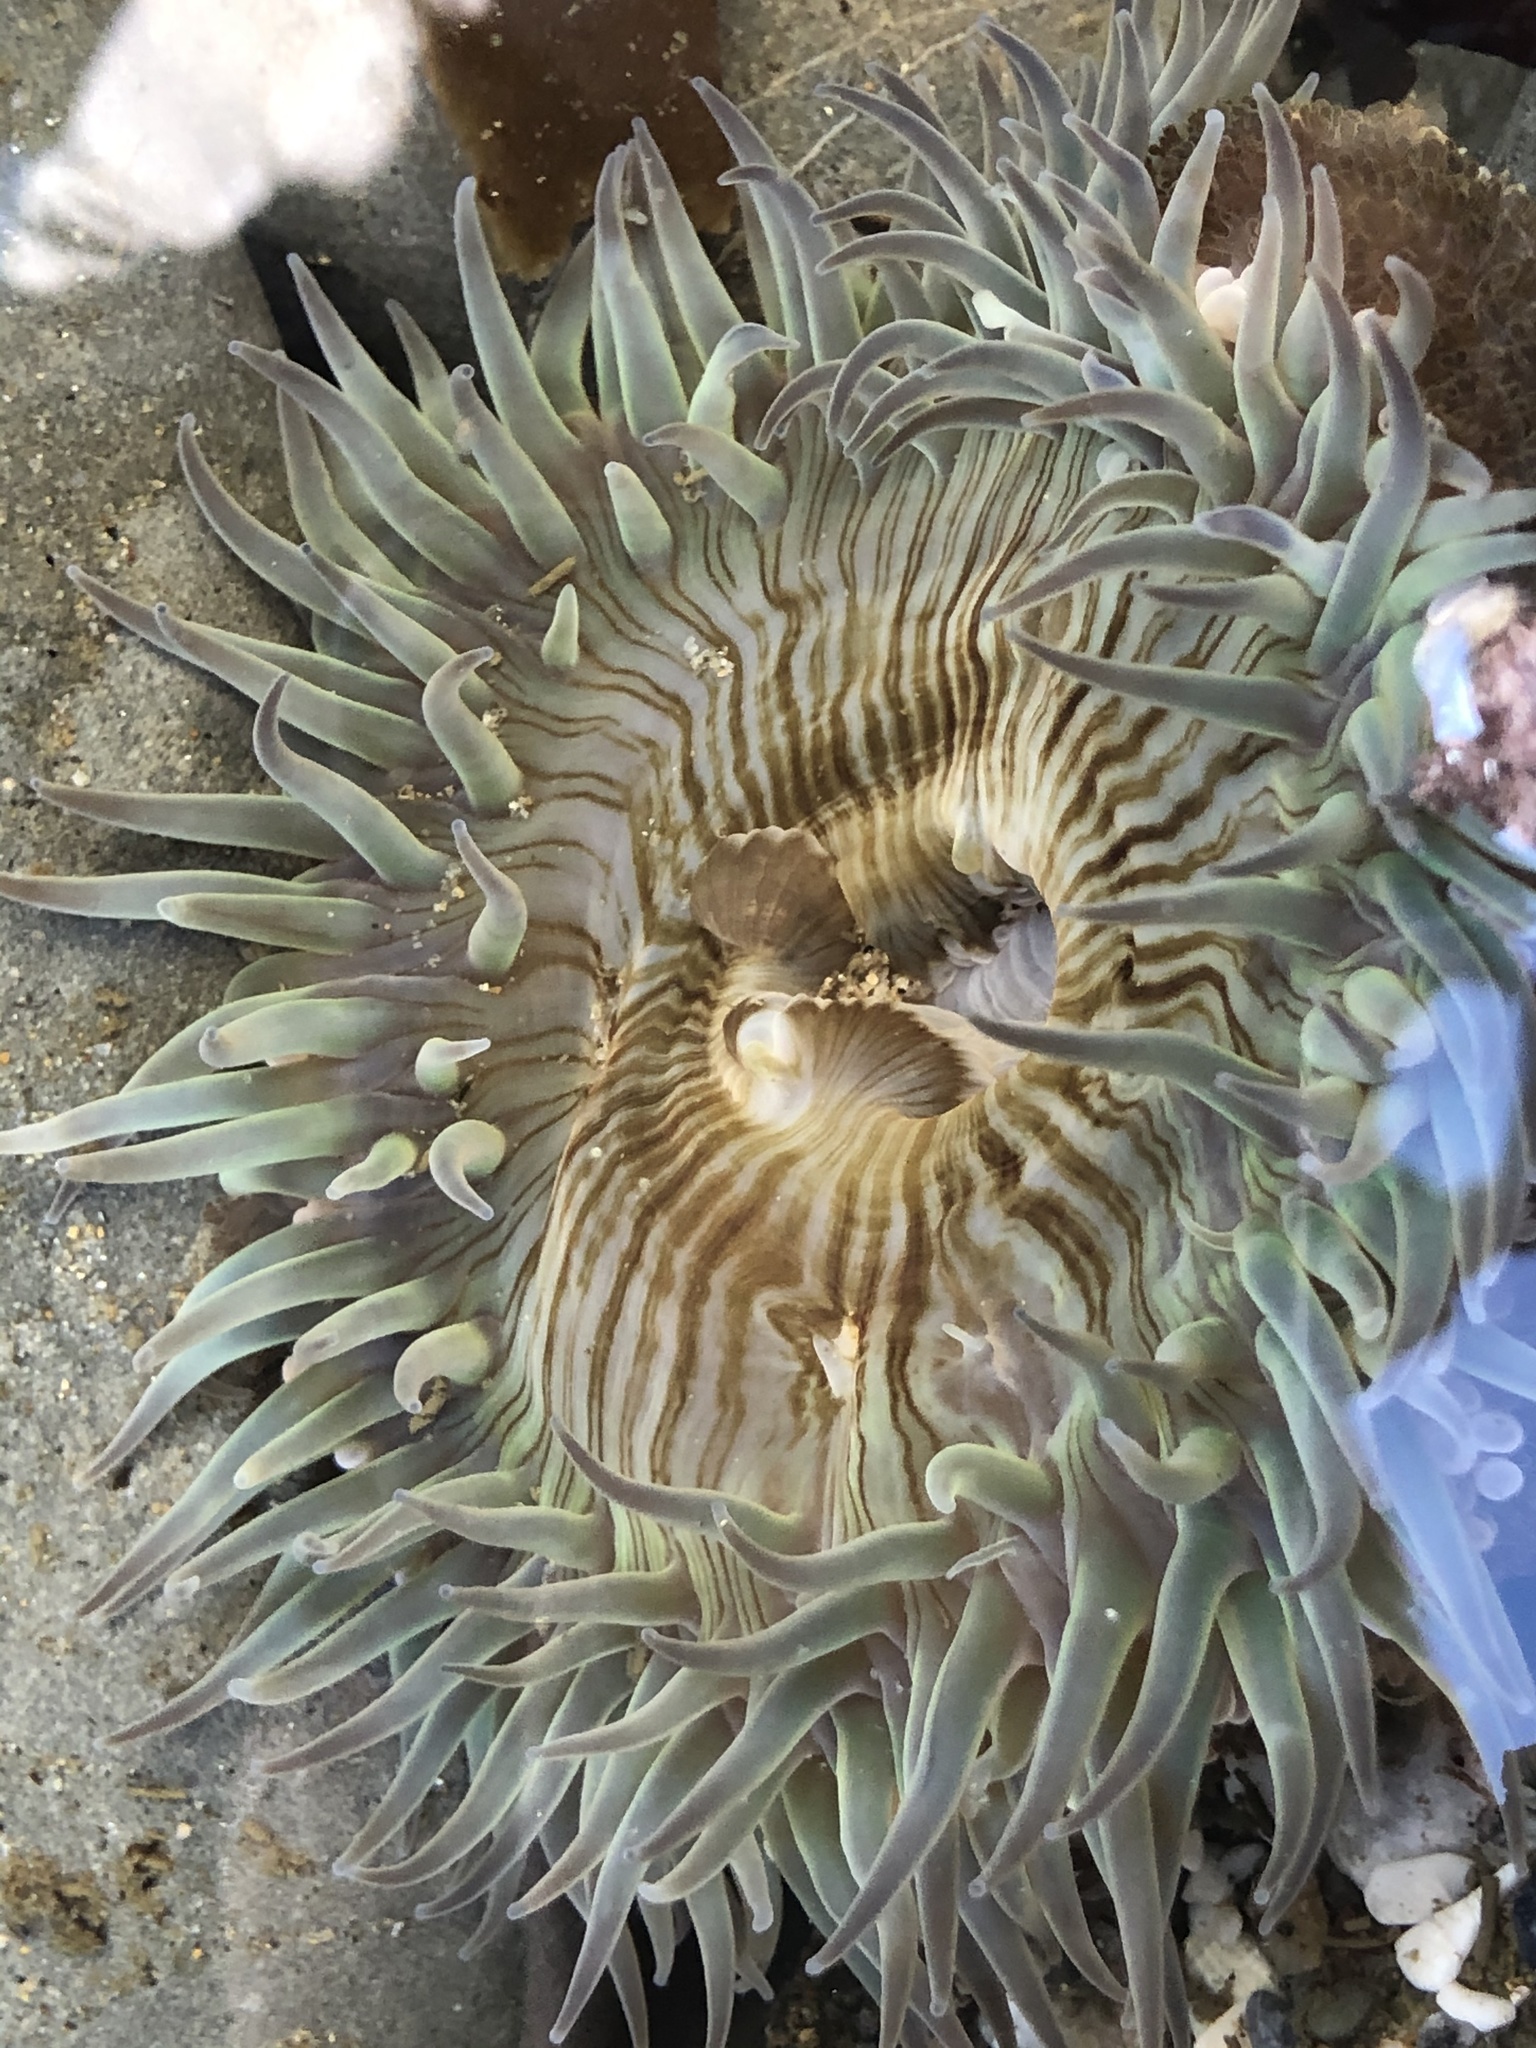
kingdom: Animalia
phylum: Cnidaria
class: Anthozoa
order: Actiniaria
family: Actiniidae
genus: Anthopleura
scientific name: Anthopleura sola
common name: Sun anemone
